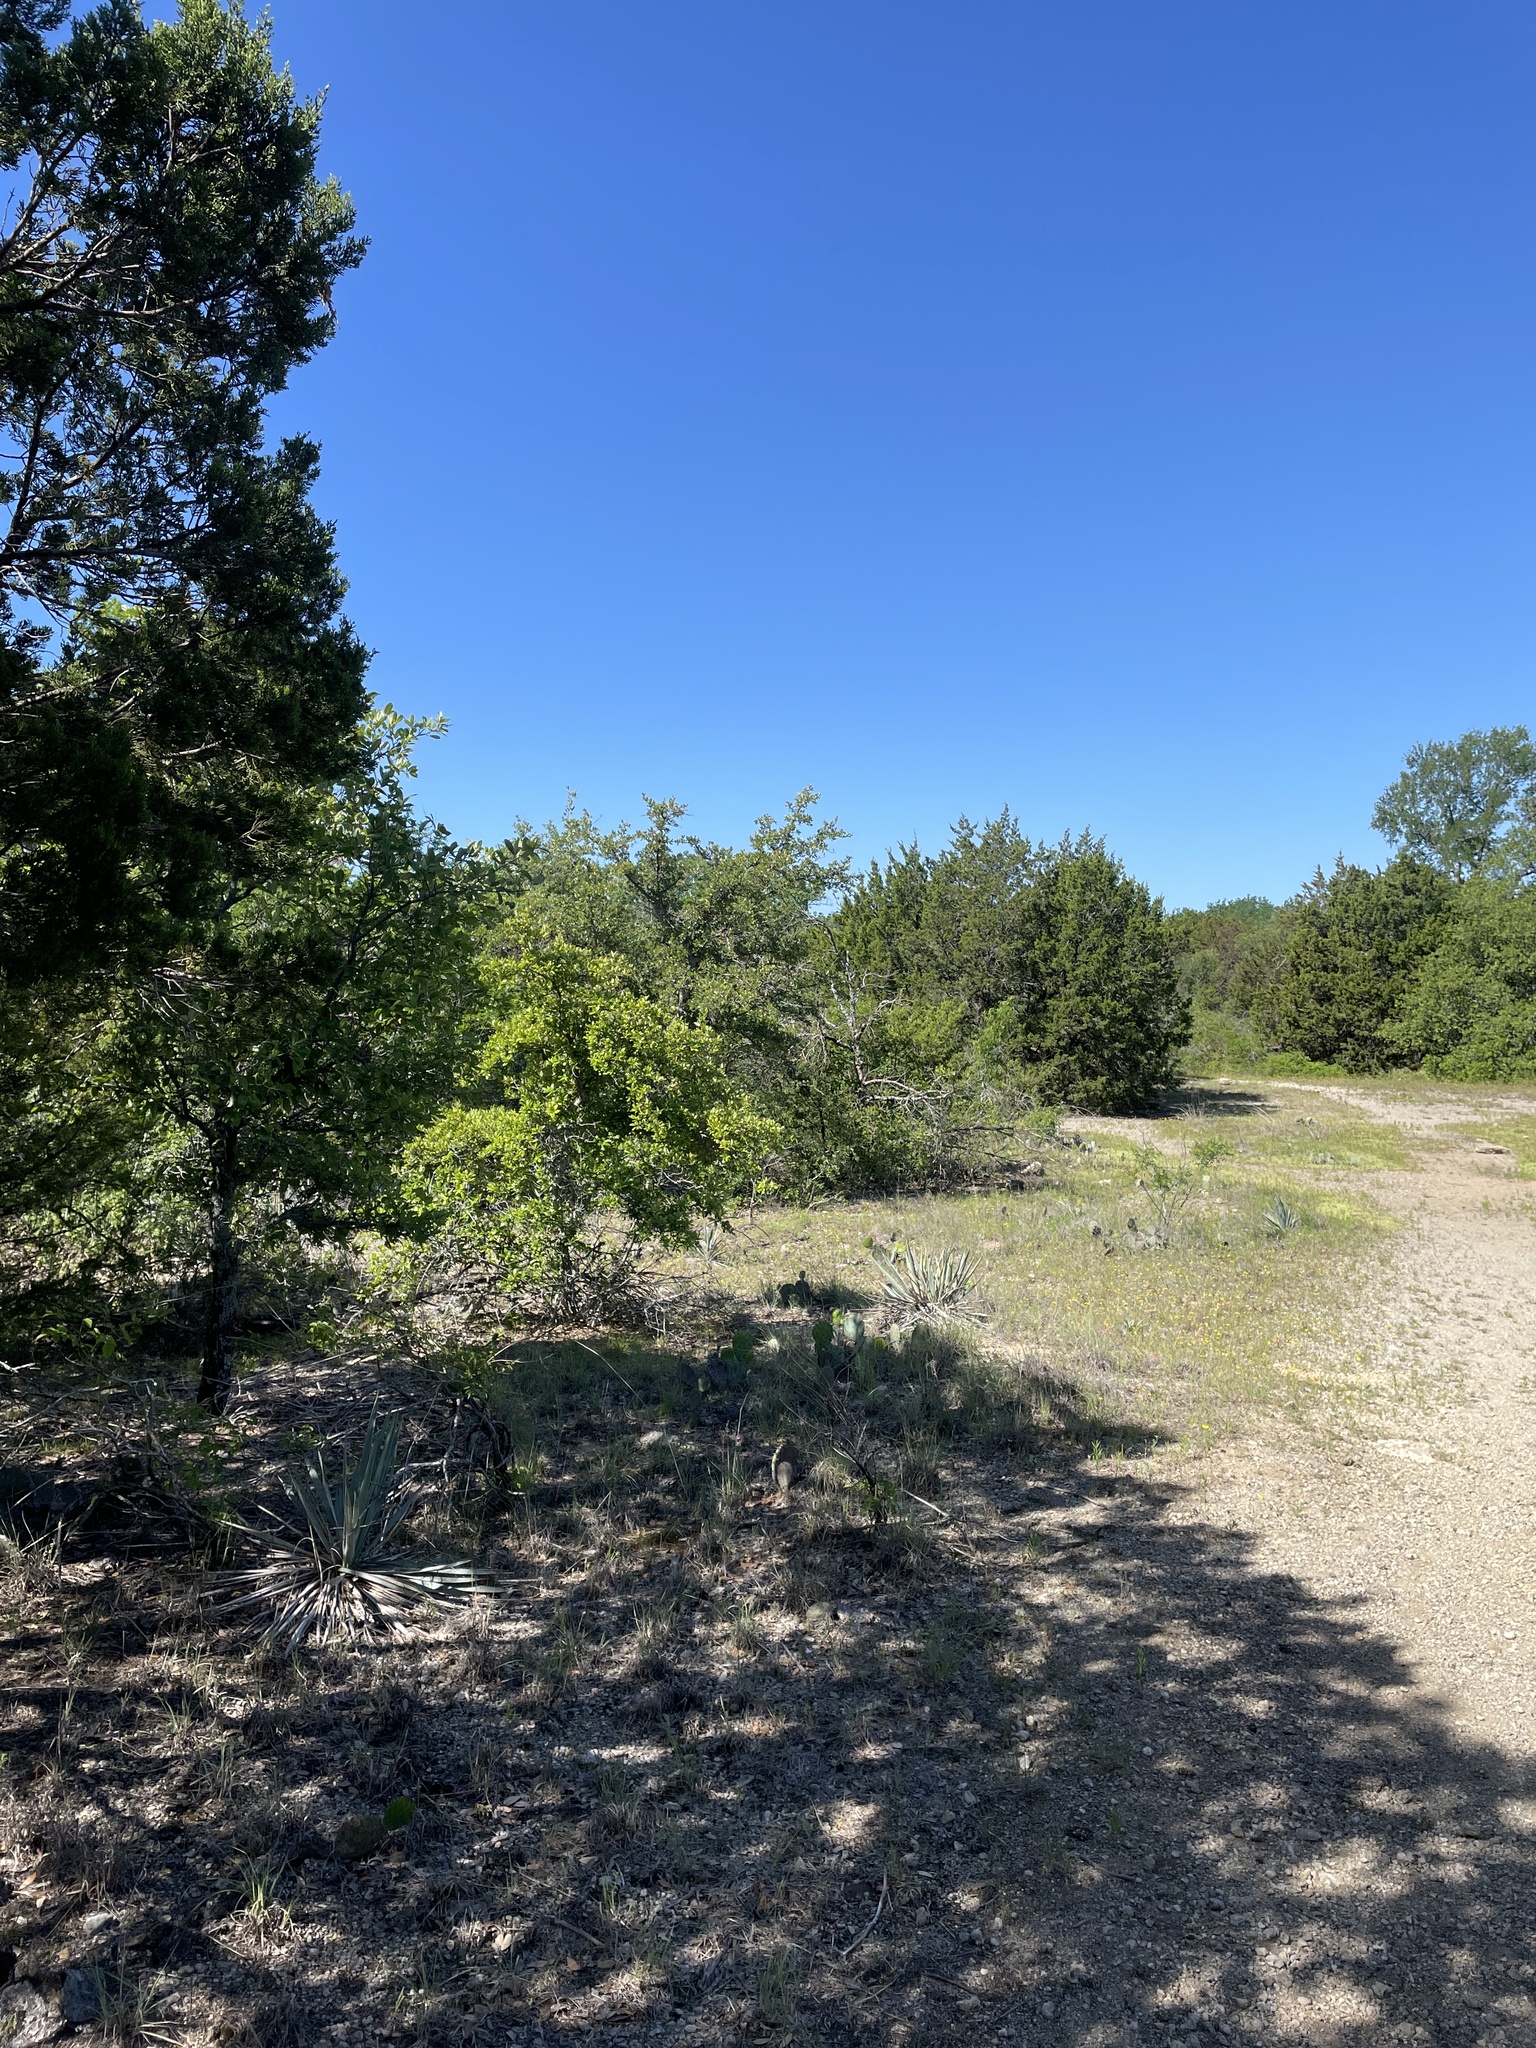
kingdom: Animalia
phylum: Chordata
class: Aves
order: Passeriformes
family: Polioptilidae
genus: Polioptila
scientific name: Polioptila caerulea
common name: Blue-gray gnatcatcher
